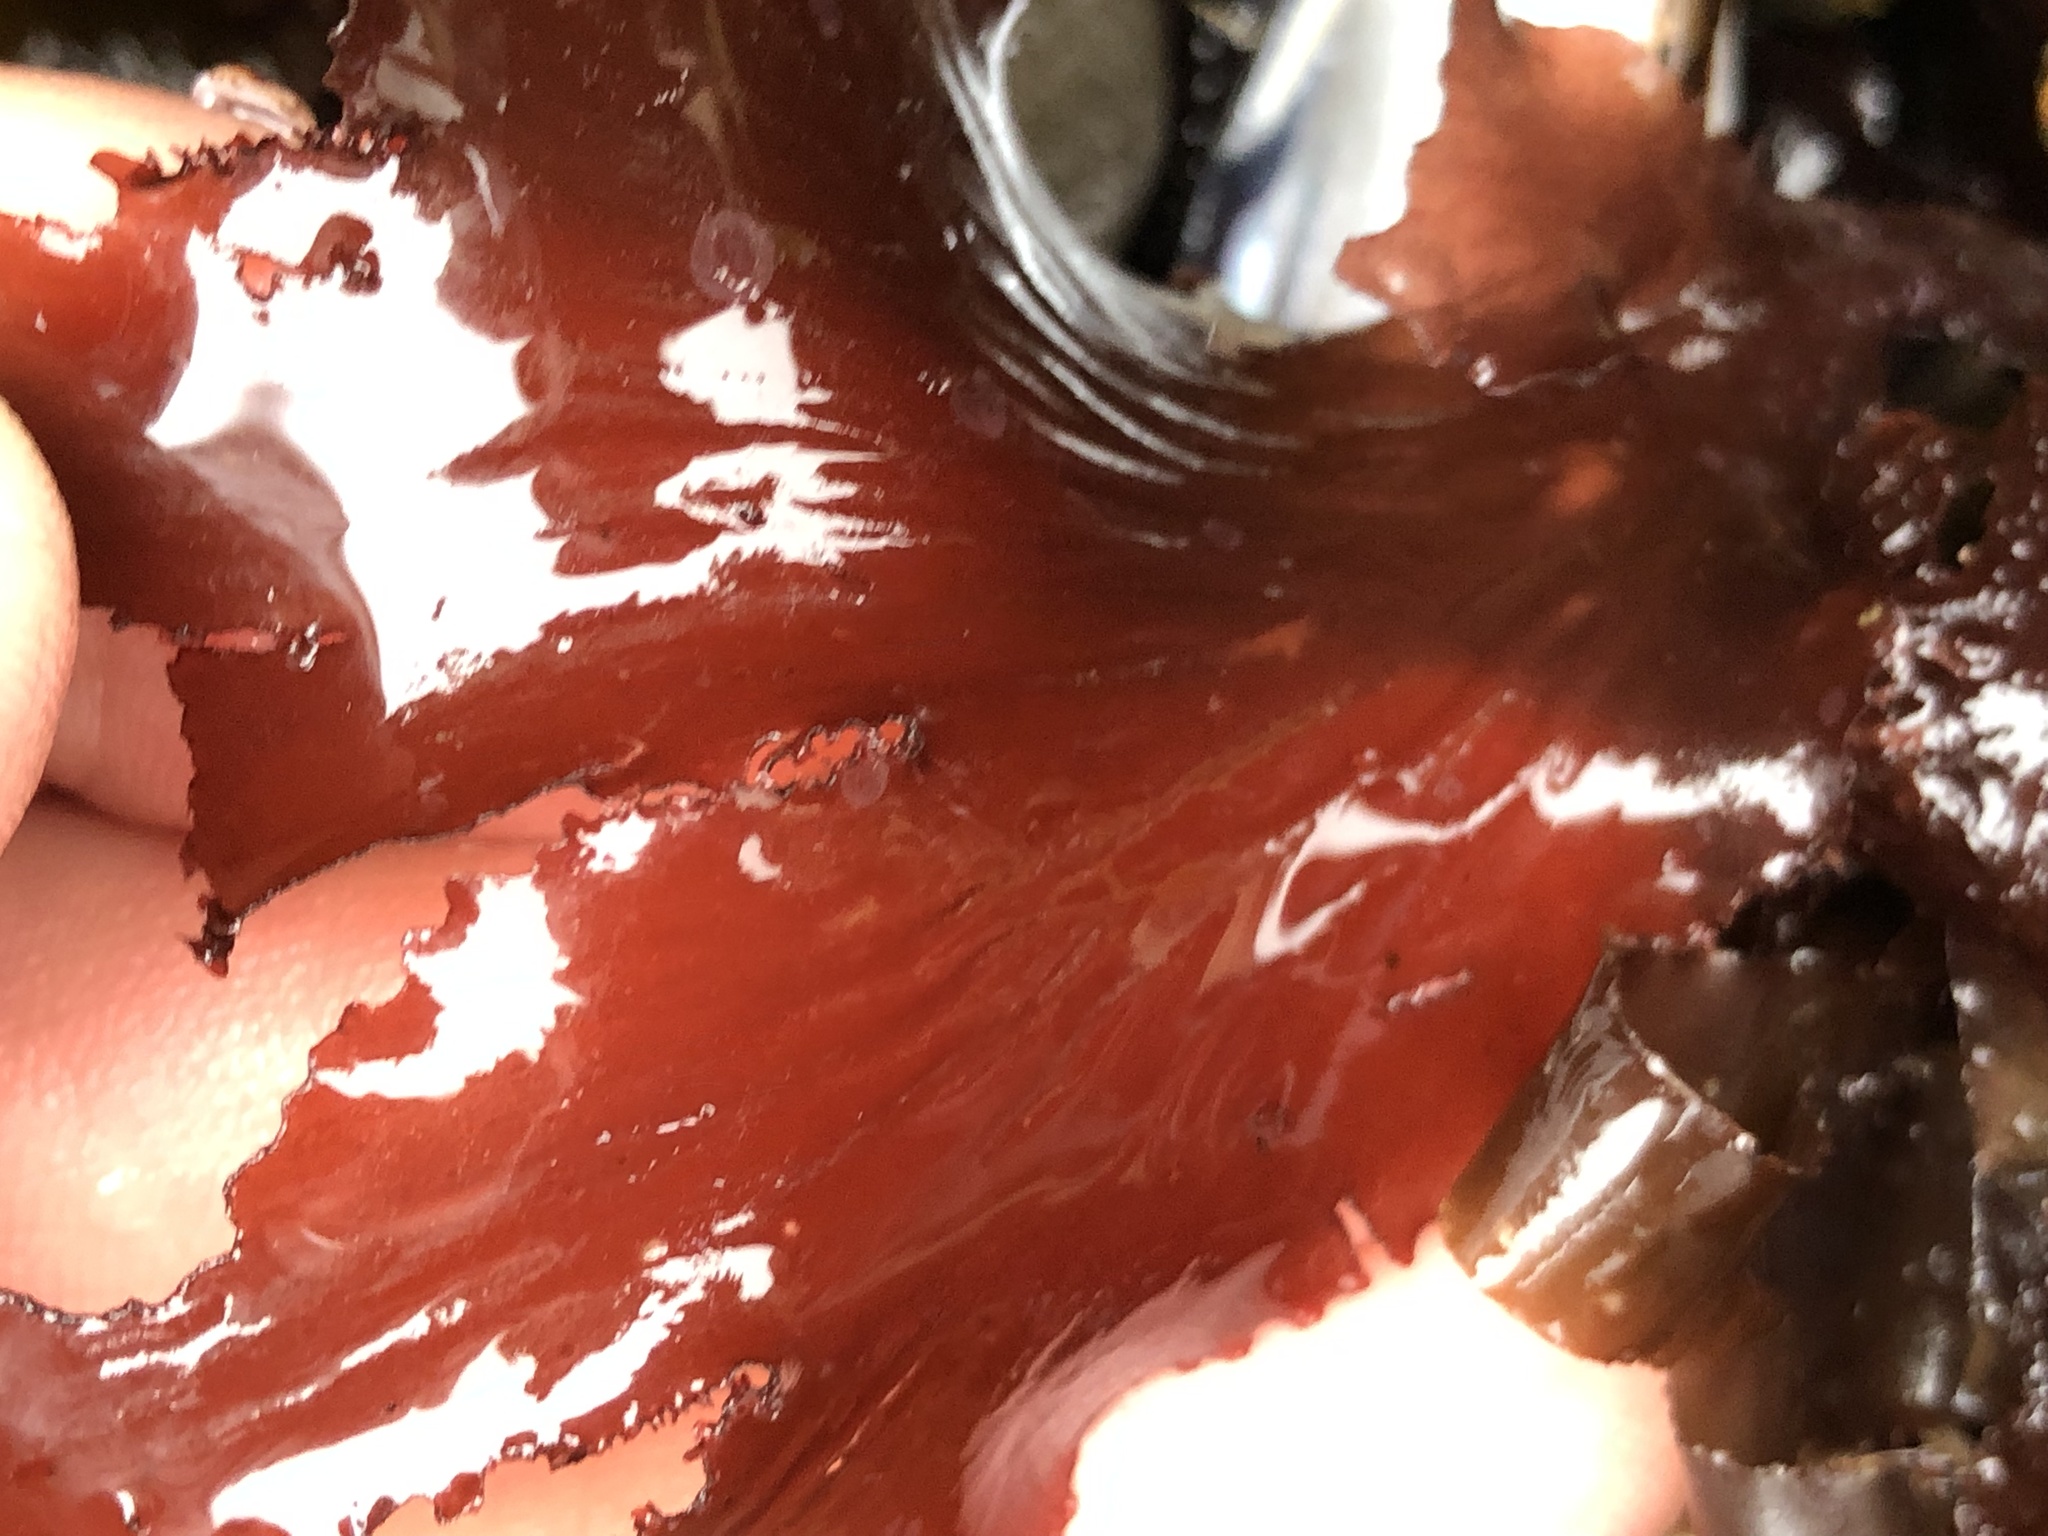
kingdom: Plantae
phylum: Rhodophyta
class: Florideophyceae
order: Ceramiales
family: Delesseriaceae
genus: Cryptopleura
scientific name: Cryptopleura ruprechtiana
